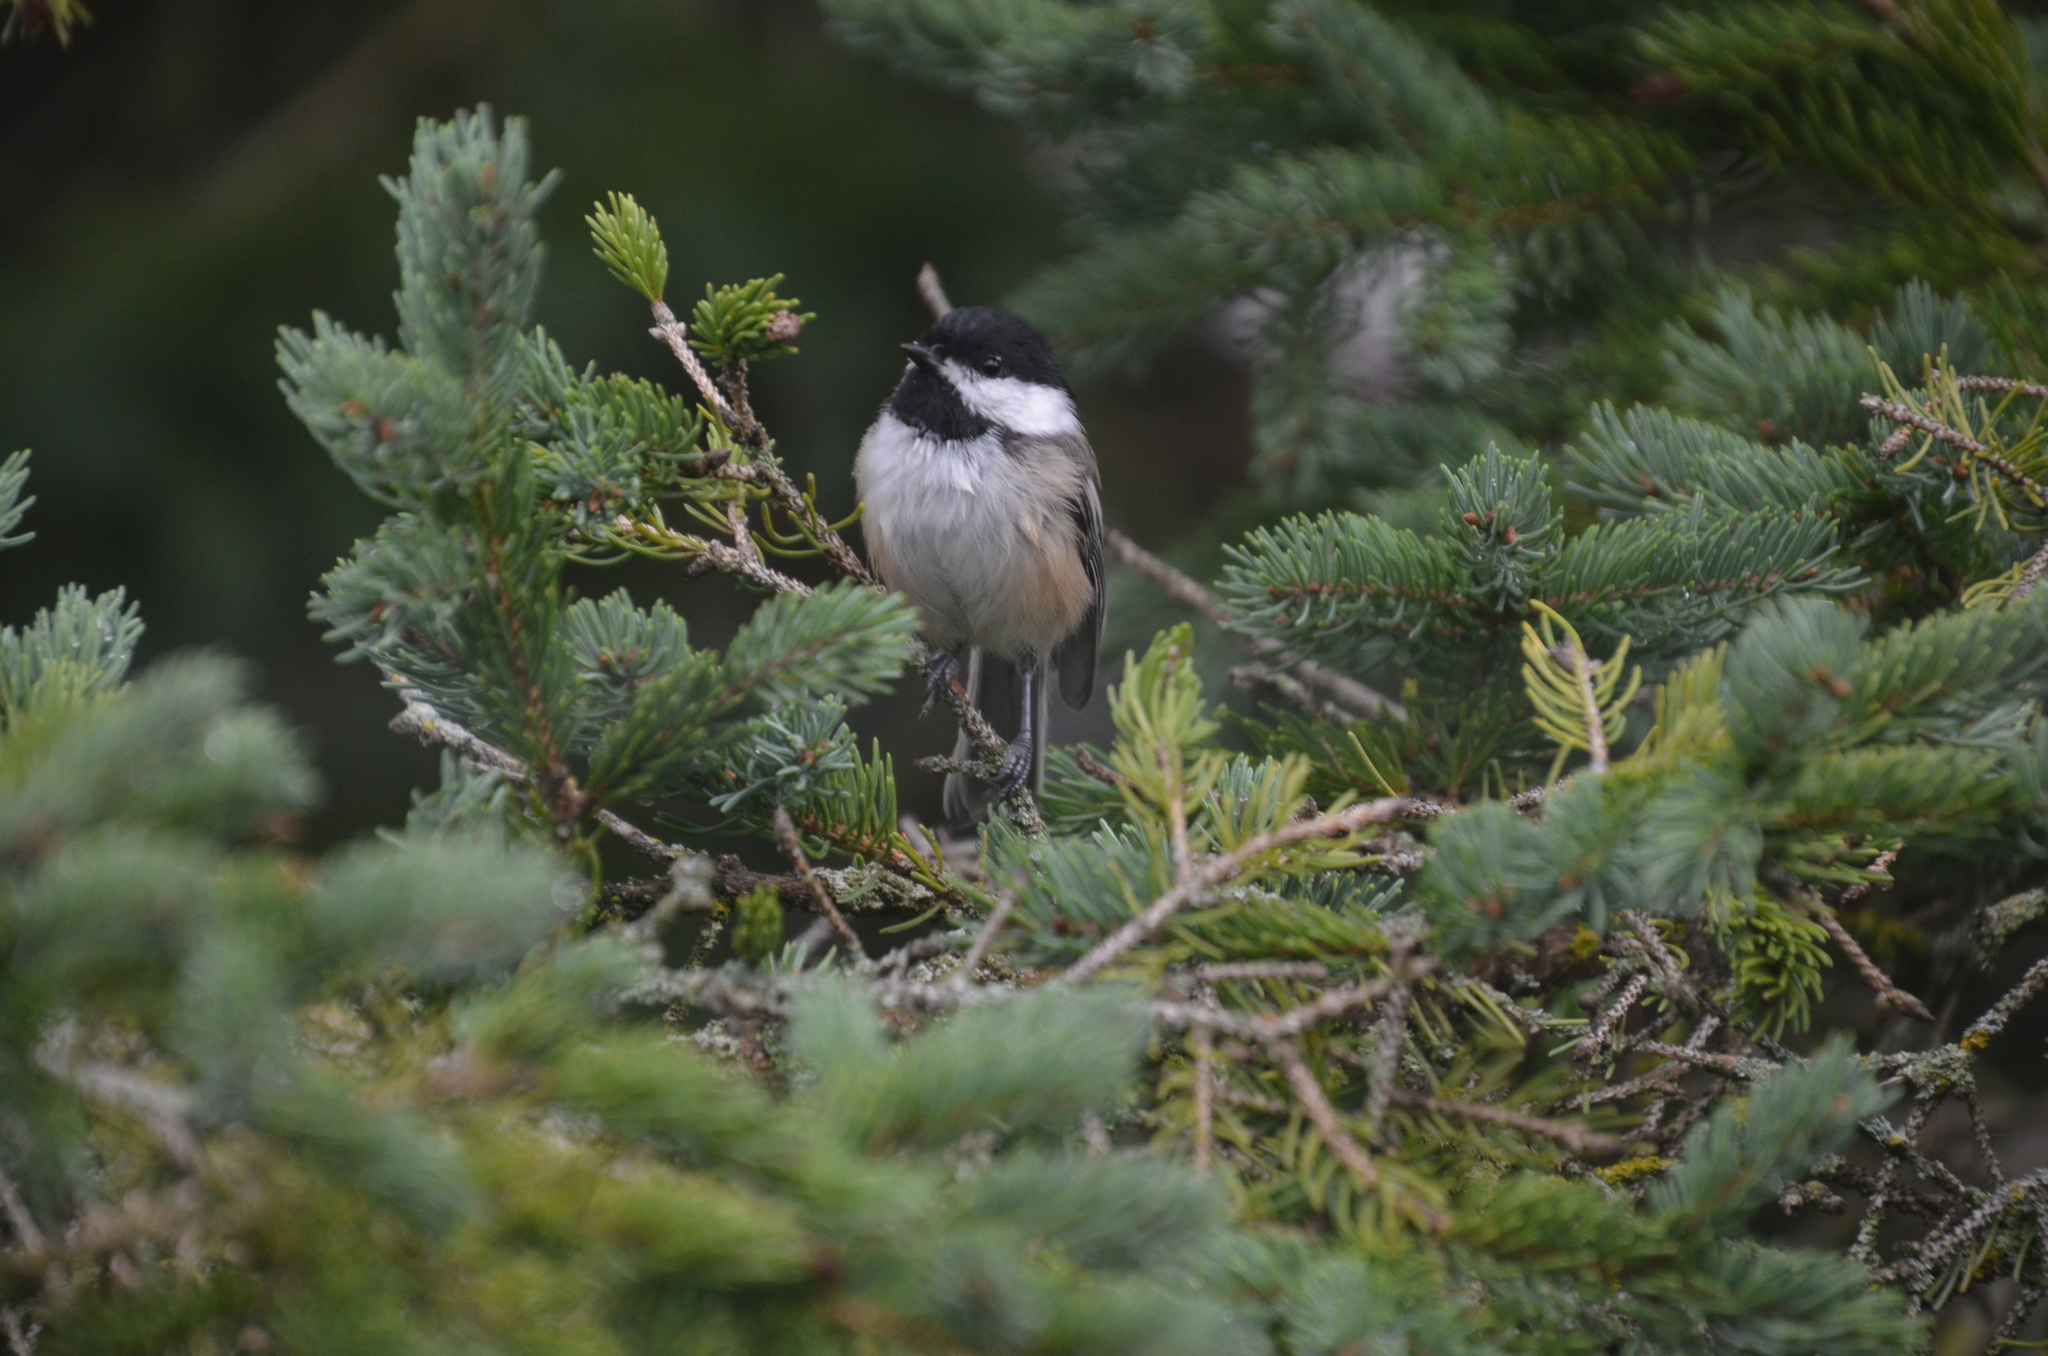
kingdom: Animalia
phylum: Chordata
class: Aves
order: Passeriformes
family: Paridae
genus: Poecile
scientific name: Poecile atricapillus
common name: Black-capped chickadee
